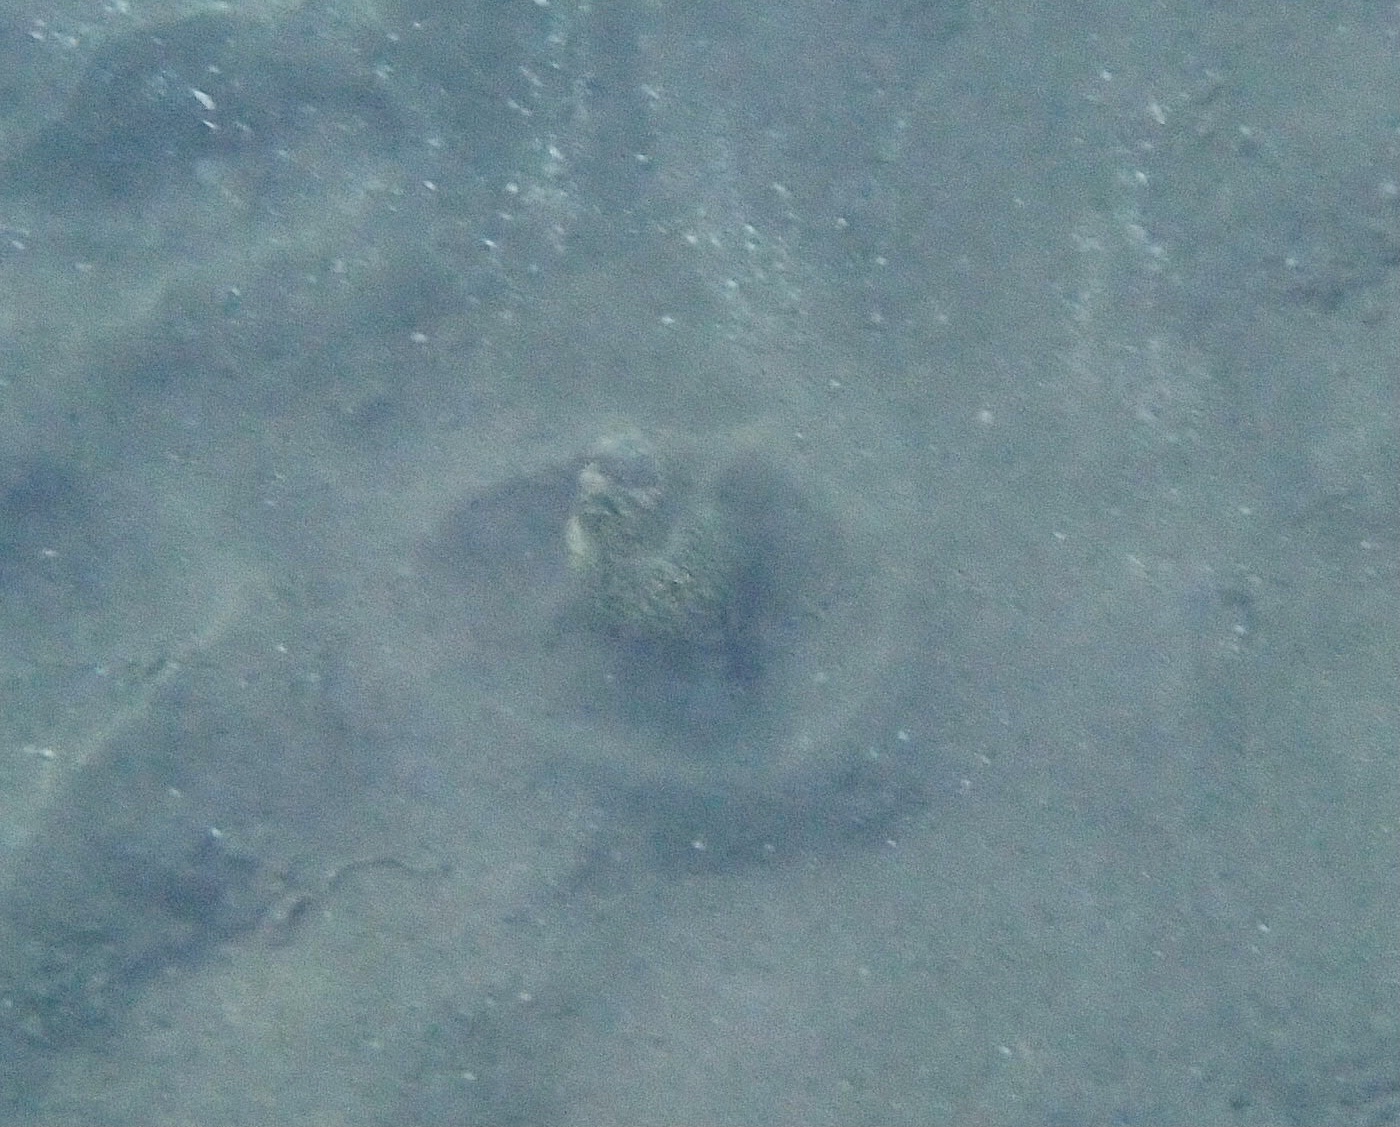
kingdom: Animalia
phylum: Chordata
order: Anguilliformes
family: Ophichthidae
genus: Callechelys
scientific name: Callechelys marmorata
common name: Marbled snake eel
